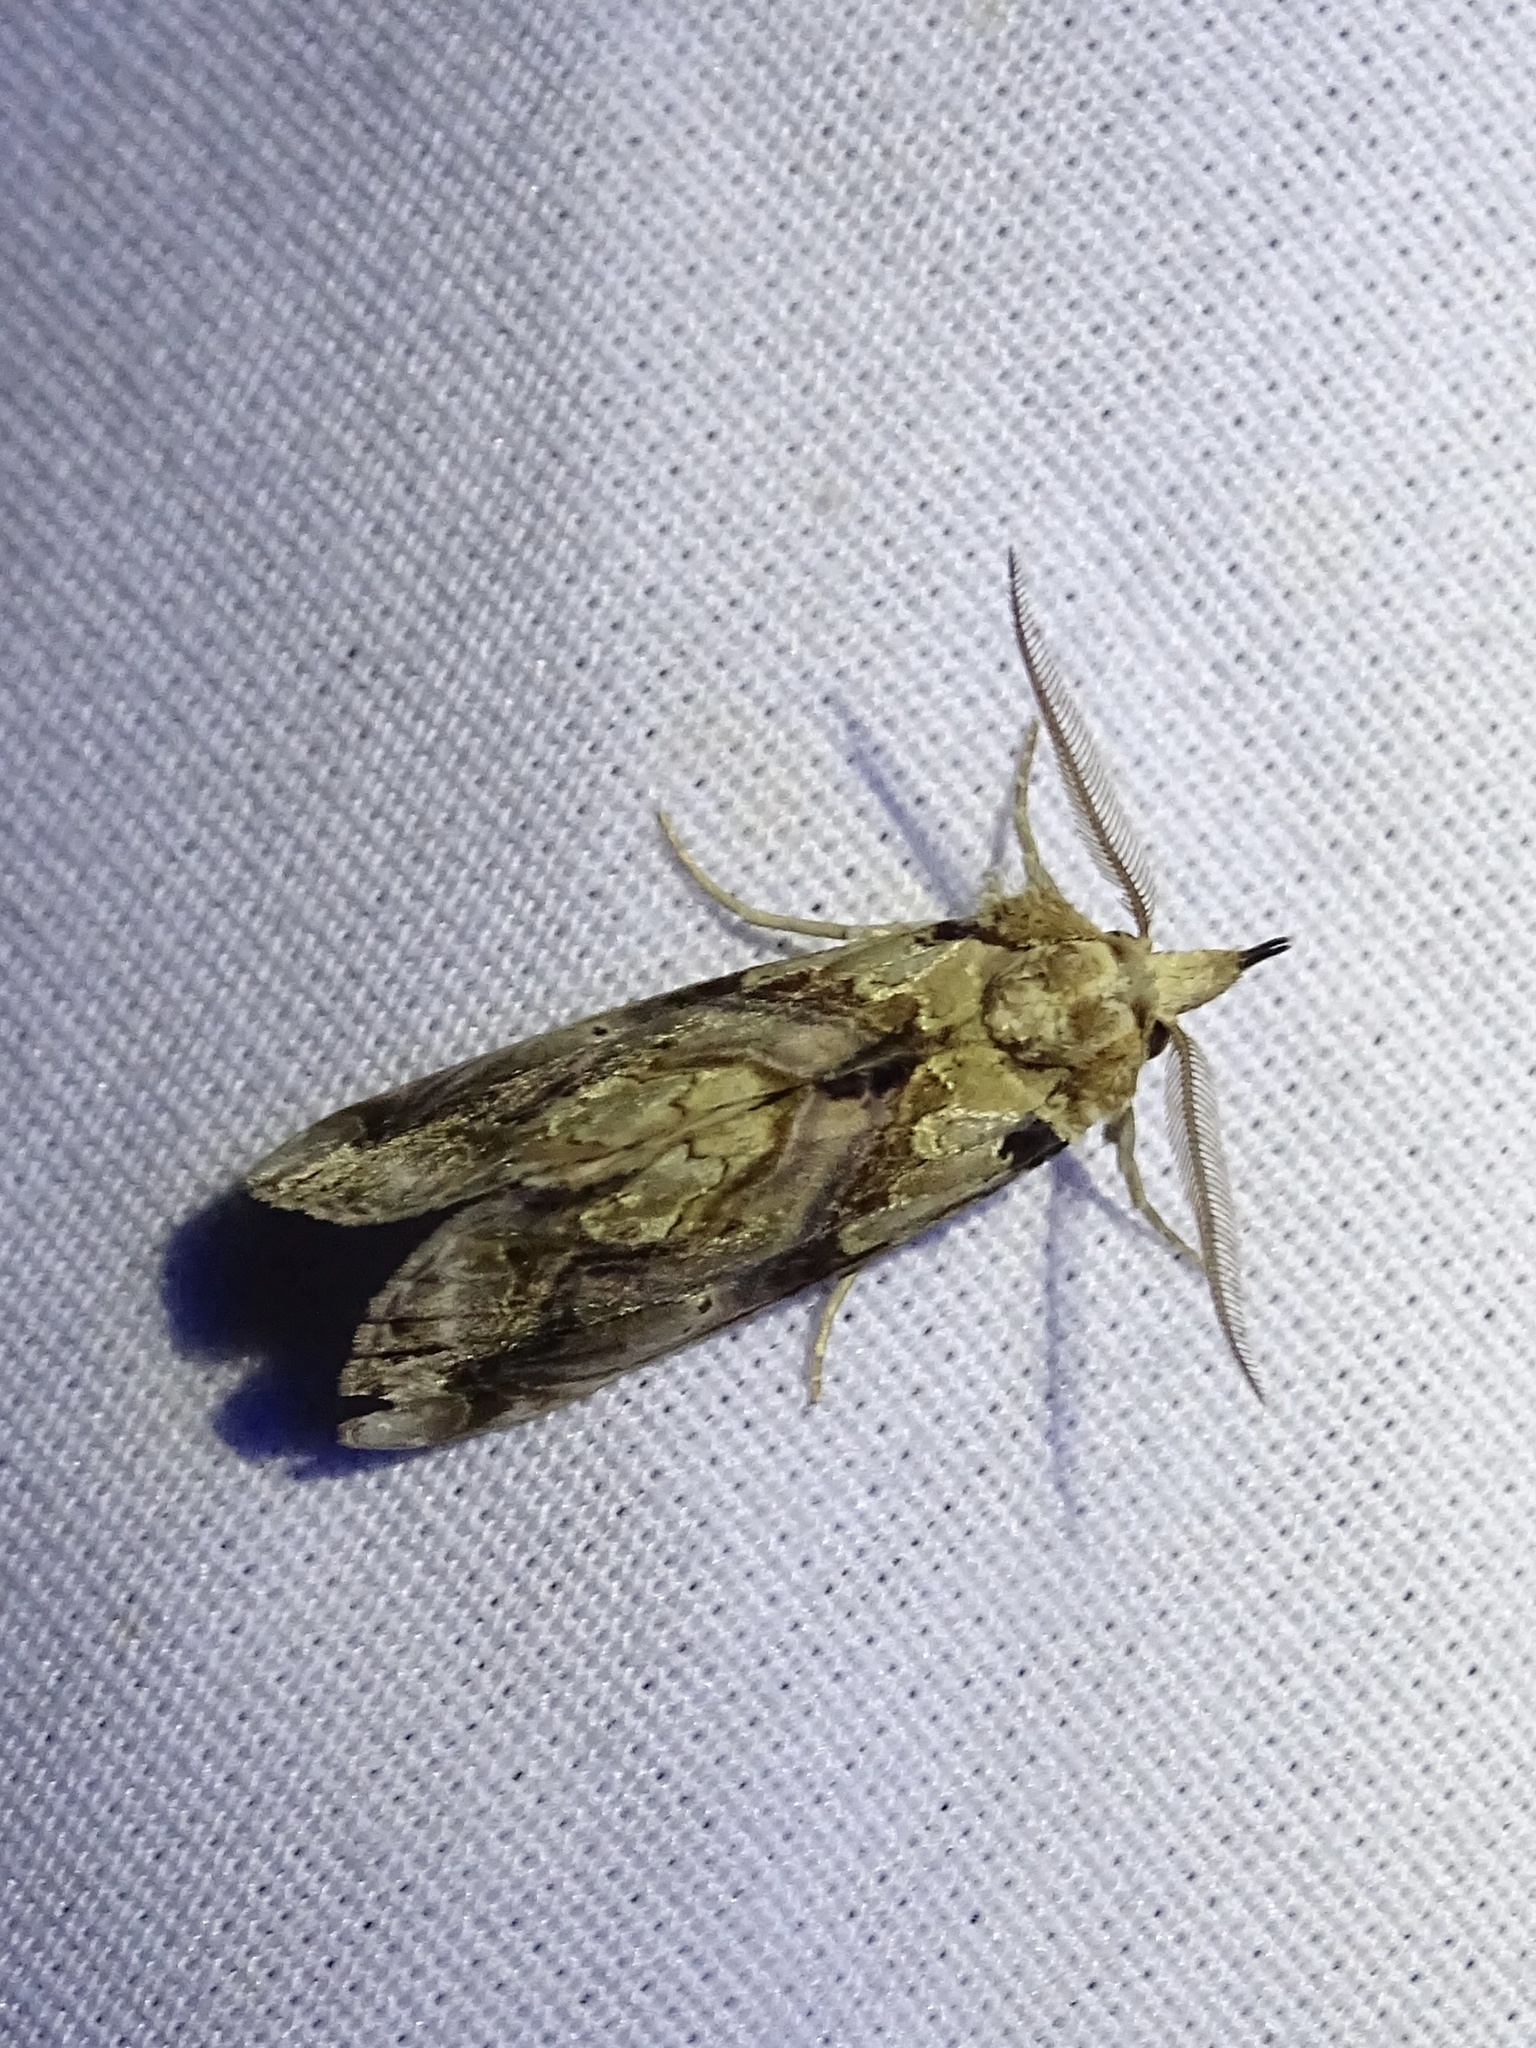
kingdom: Animalia
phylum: Arthropoda
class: Insecta
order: Lepidoptera
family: Erebidae
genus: Plusiodonta
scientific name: Plusiodonta compressipalpis
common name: Moonseed moth
